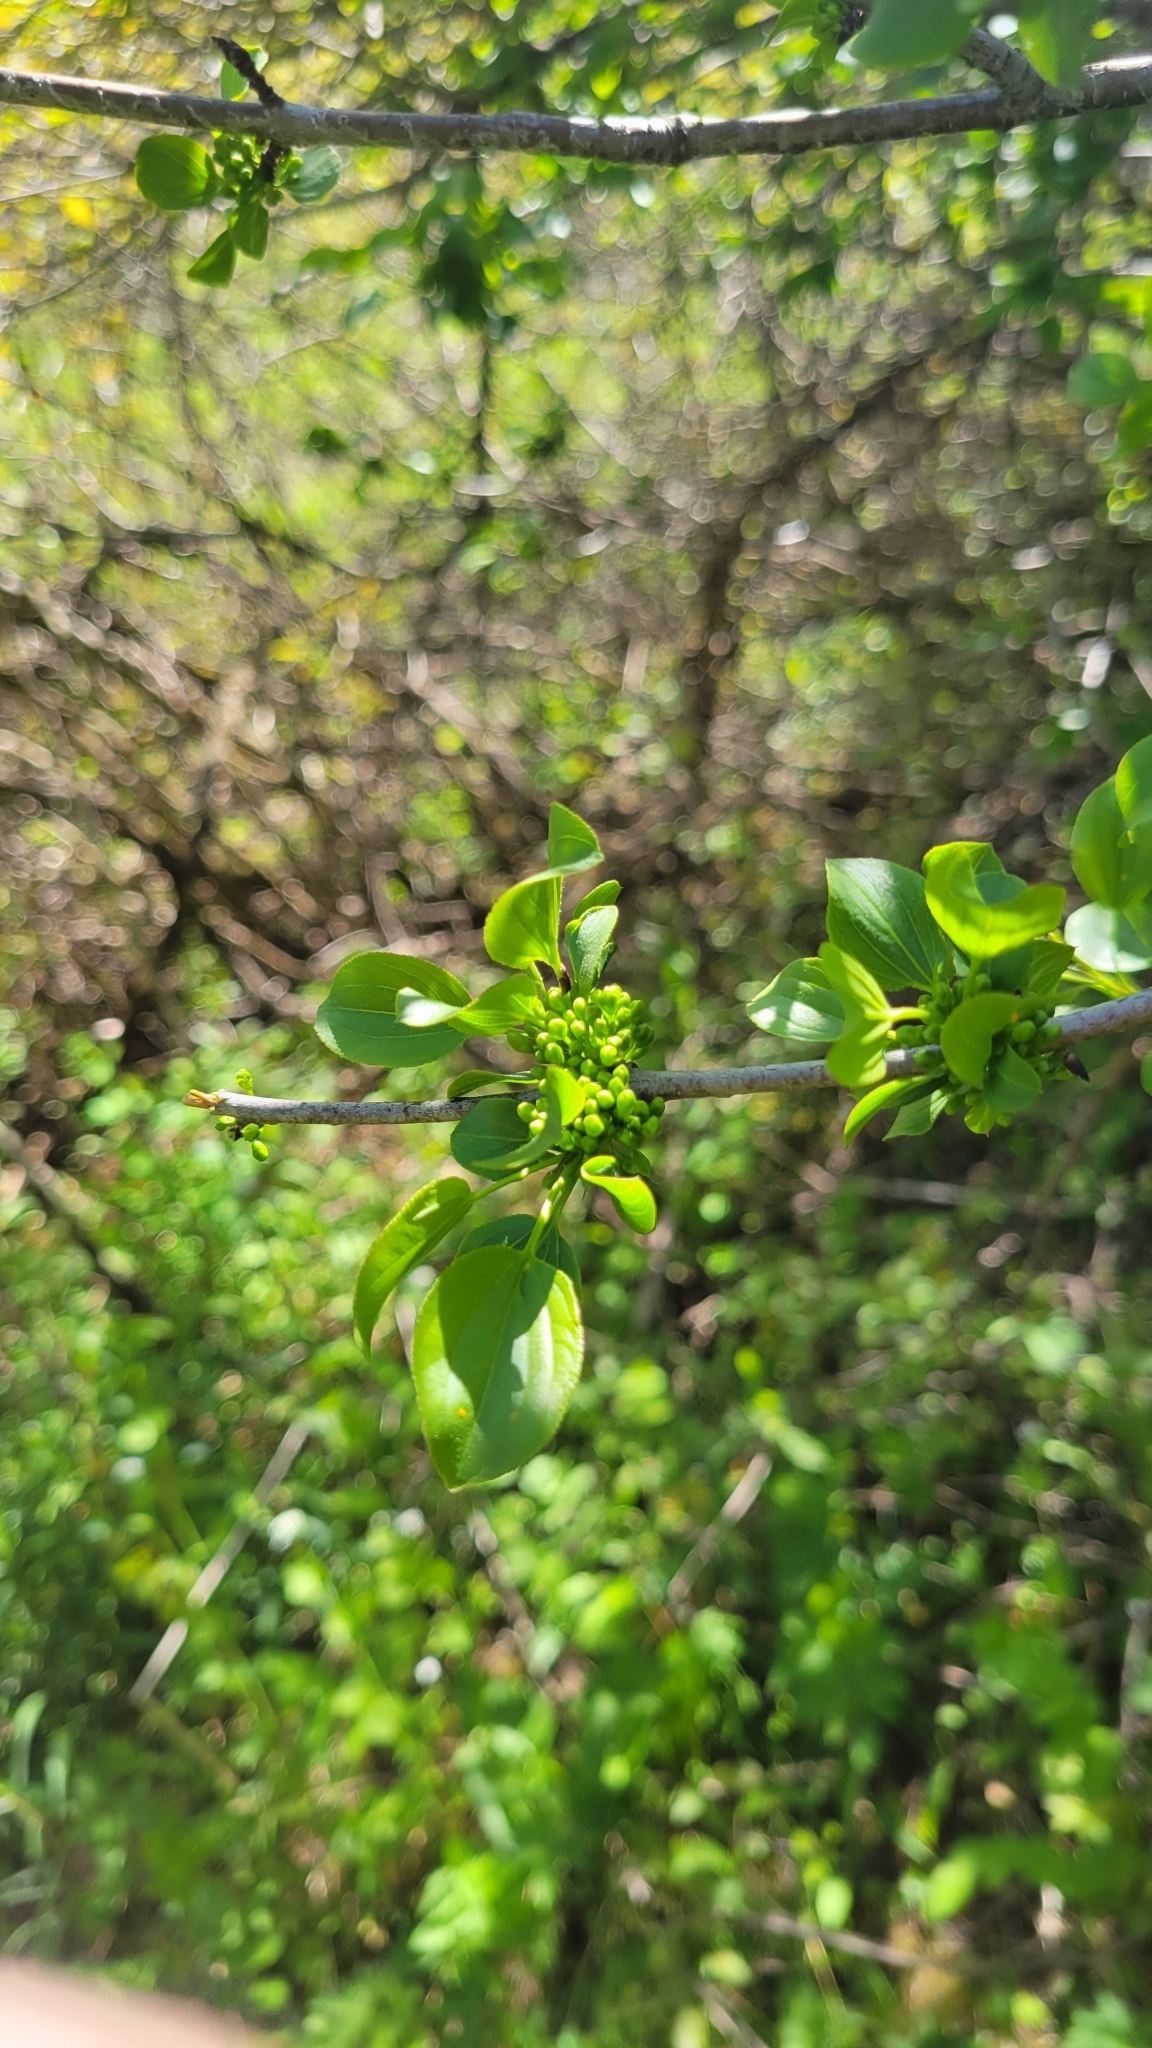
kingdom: Plantae
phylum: Tracheophyta
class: Magnoliopsida
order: Rosales
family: Rhamnaceae
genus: Rhamnus
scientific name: Rhamnus cathartica
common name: Common buckthorn
